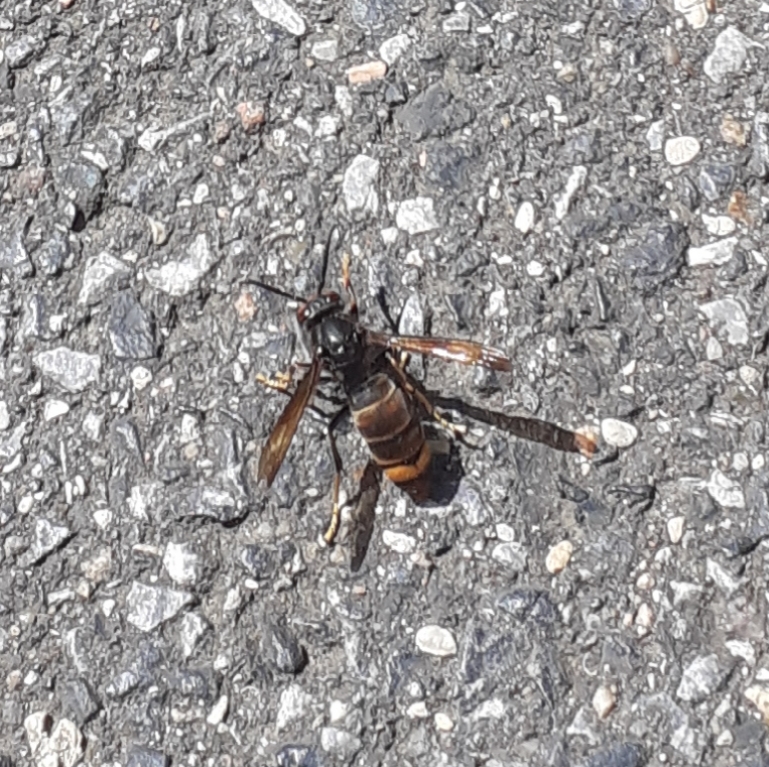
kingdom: Animalia
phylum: Arthropoda
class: Insecta
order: Hymenoptera
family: Vespidae
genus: Vespa
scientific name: Vespa velutina
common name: Asian hornet
